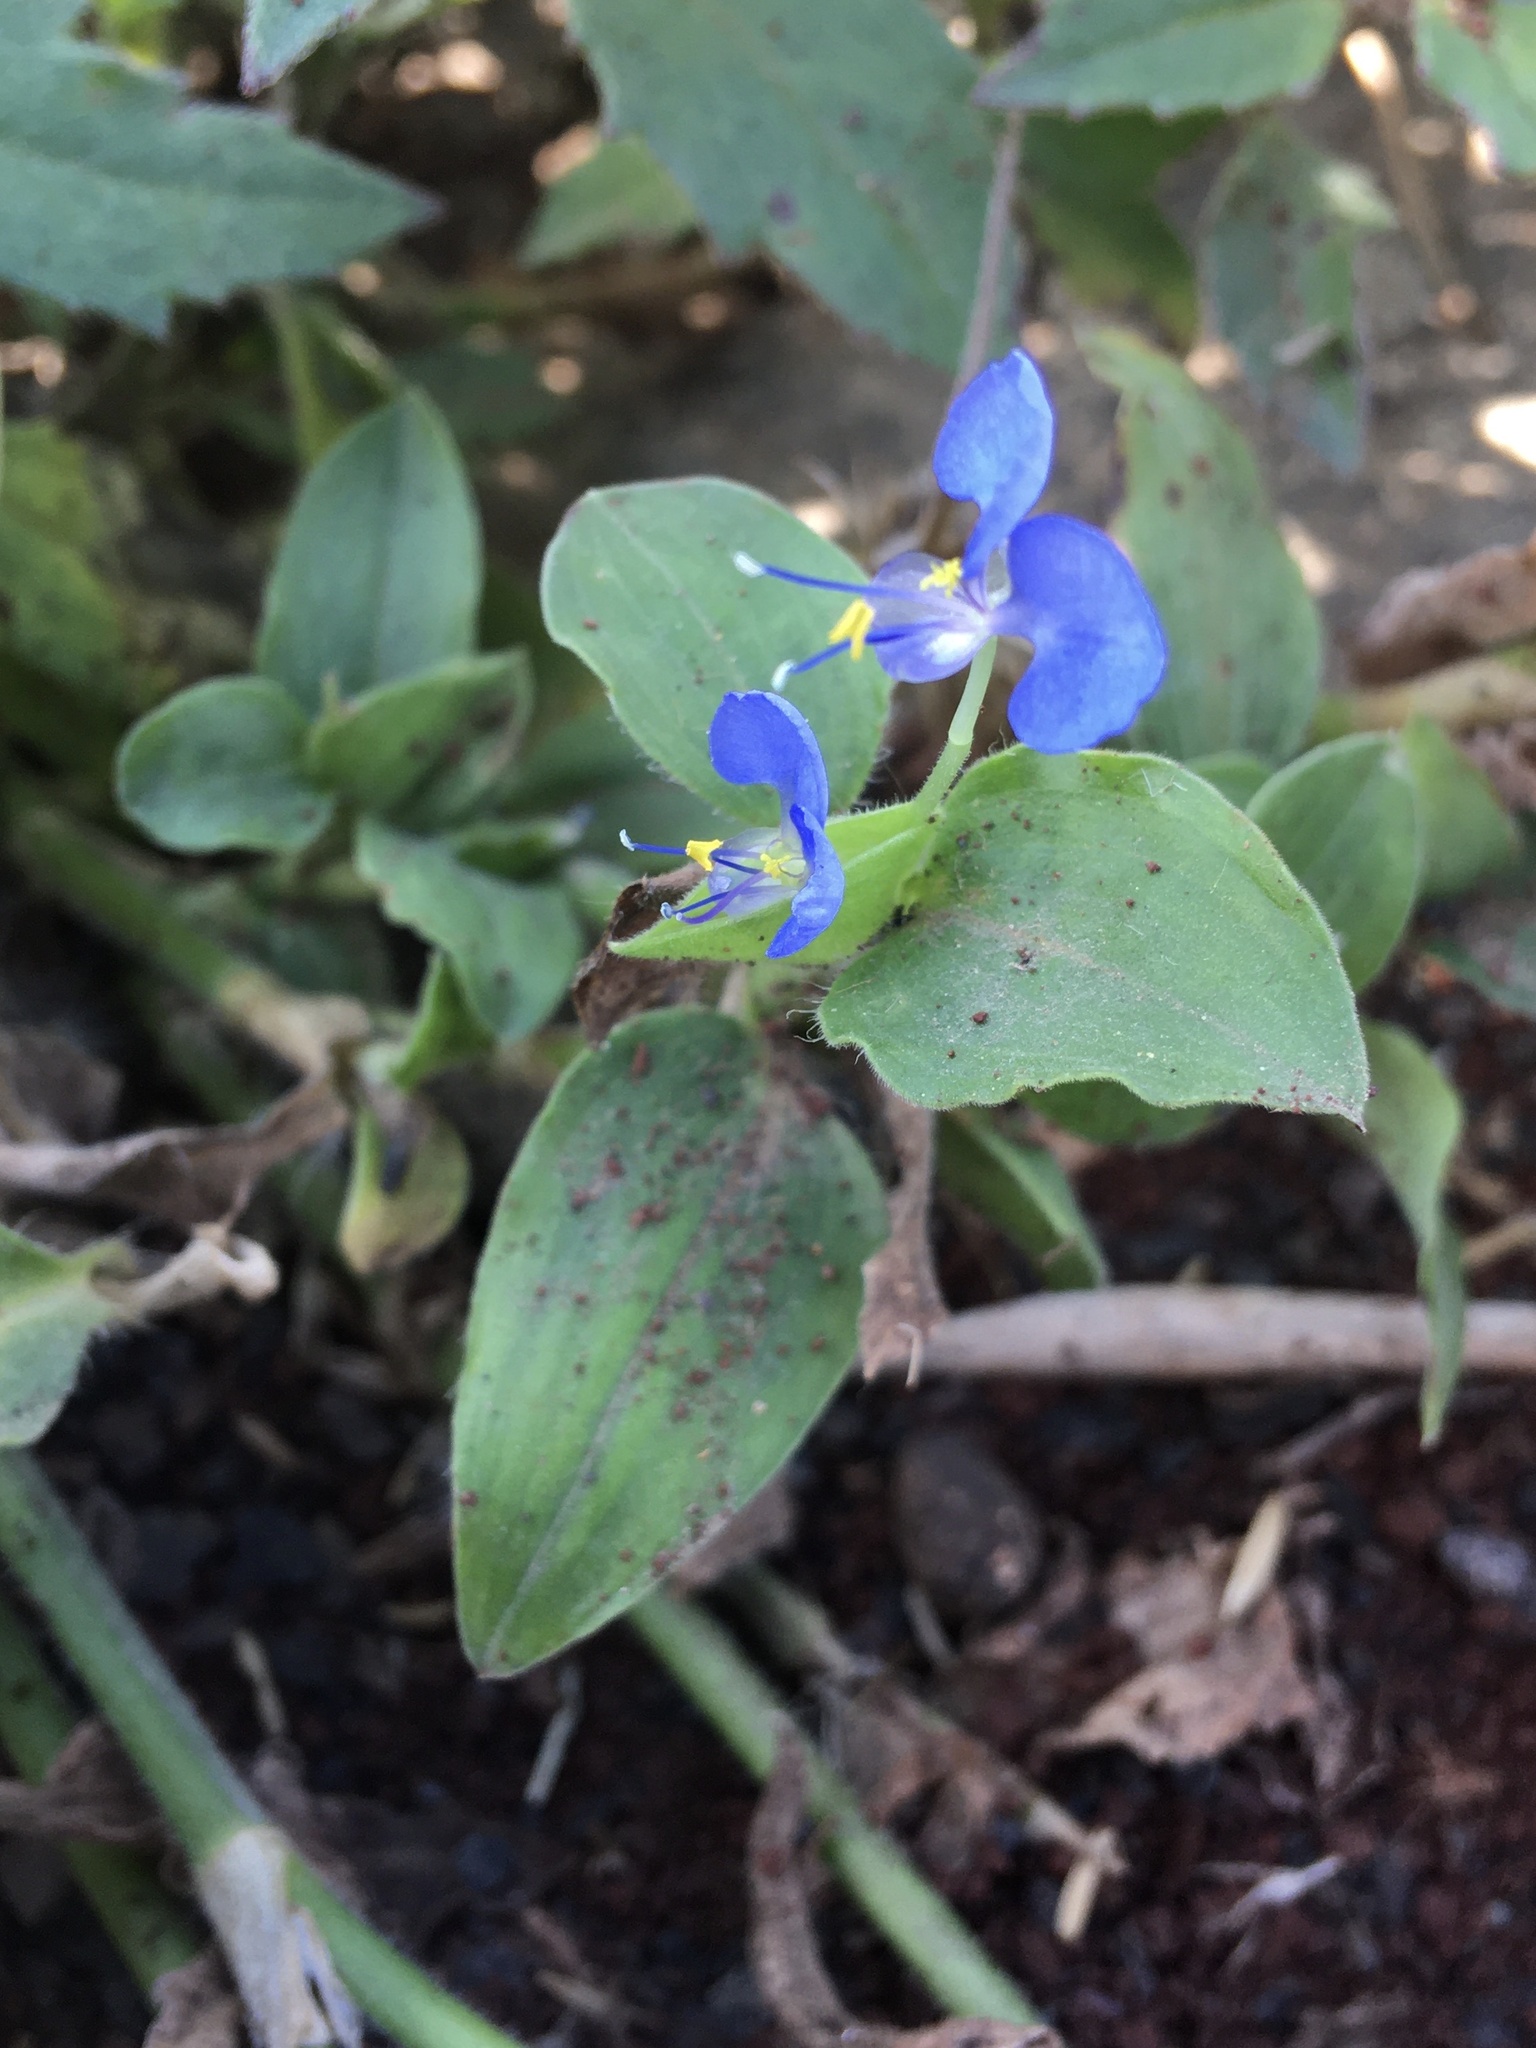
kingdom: Plantae
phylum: Tracheophyta
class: Liliopsida
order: Commelinales
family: Commelinaceae
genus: Commelina
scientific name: Commelina benghalensis
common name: Jio
